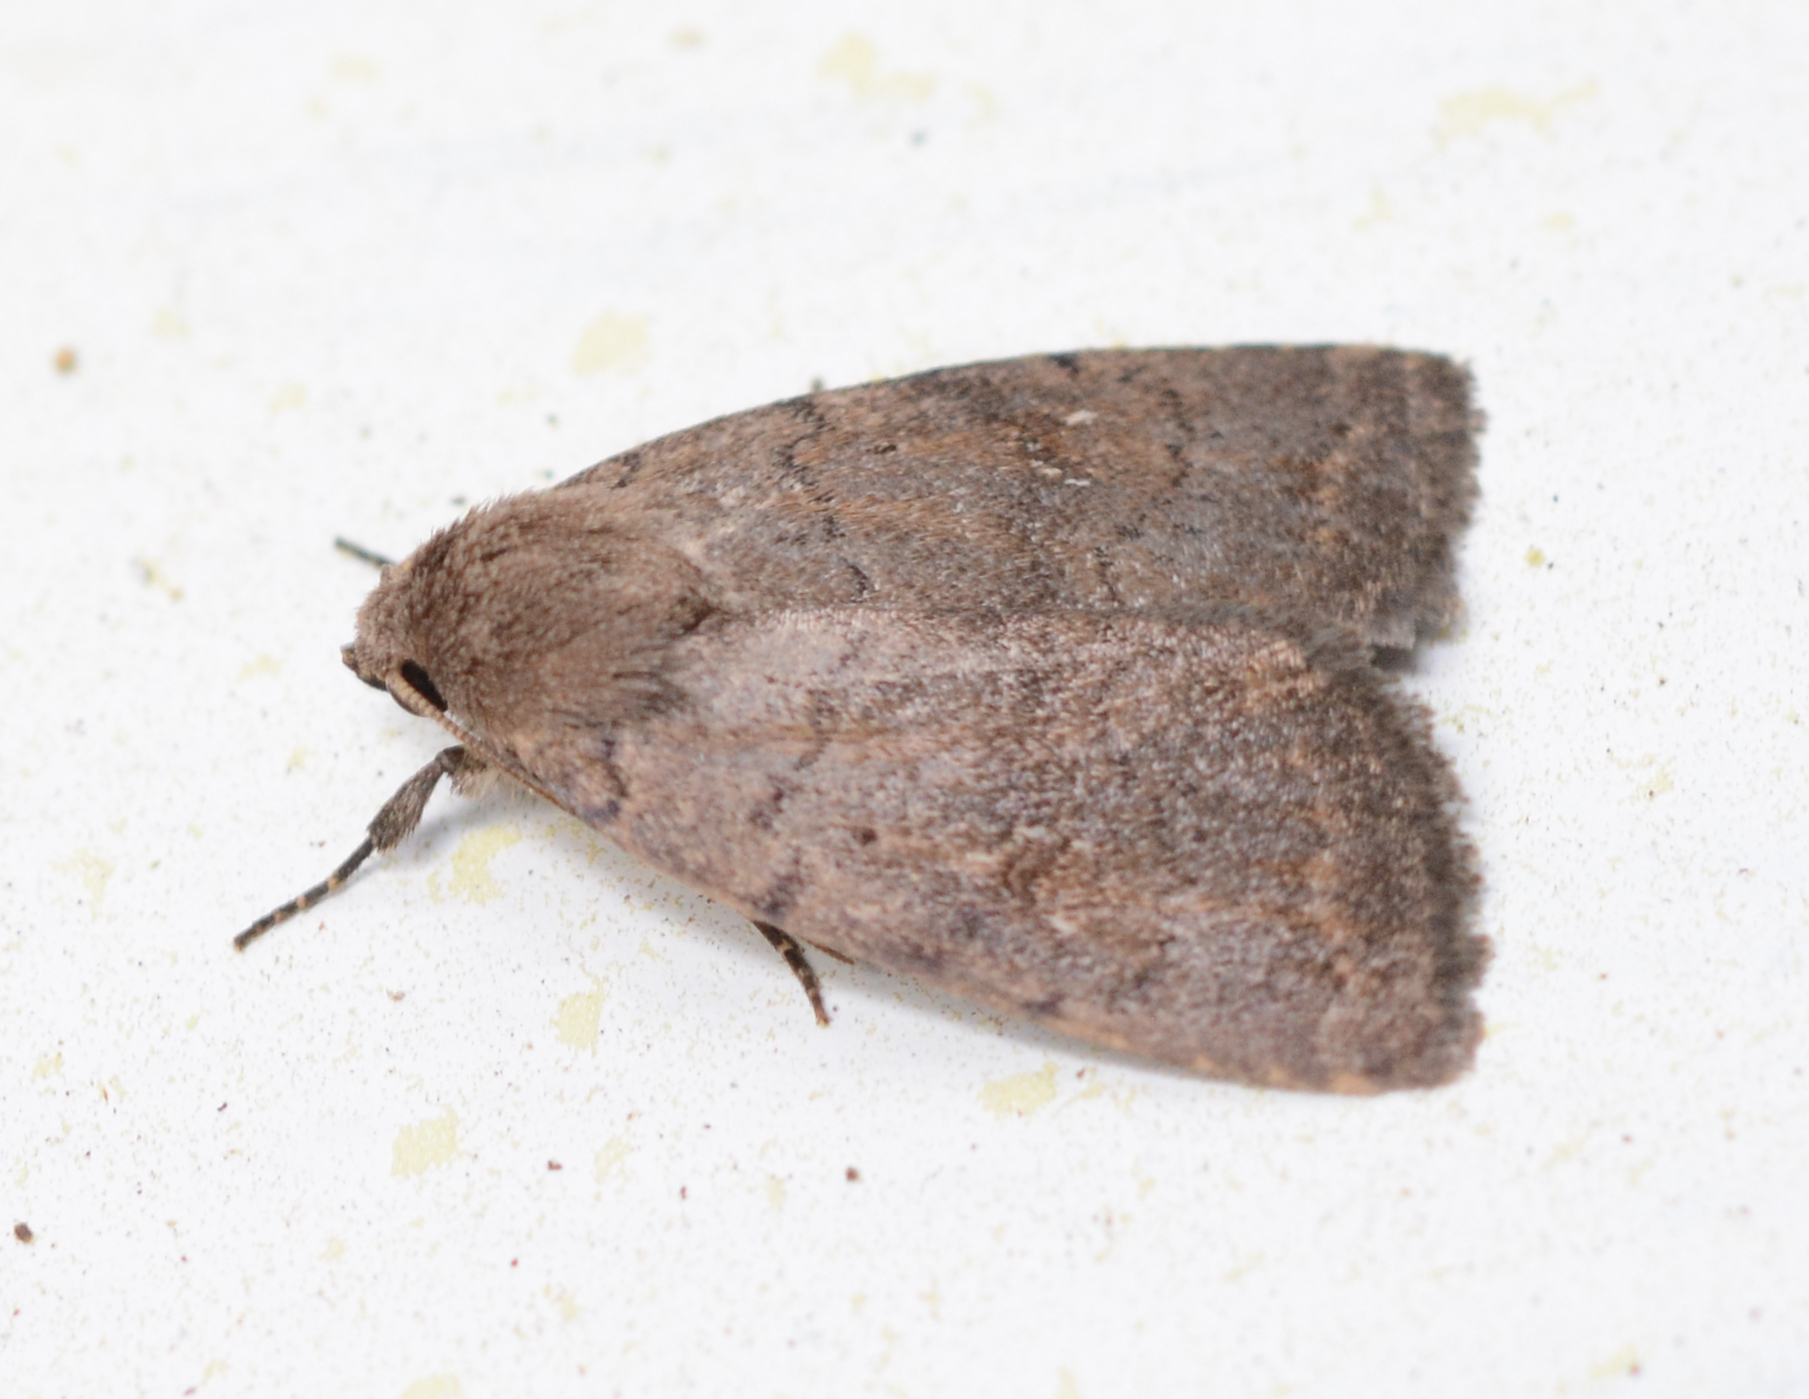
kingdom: Animalia
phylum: Arthropoda
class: Insecta
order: Lepidoptera
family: Noctuidae
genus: Athetis
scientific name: Athetis tarda
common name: Slowpoke moth
